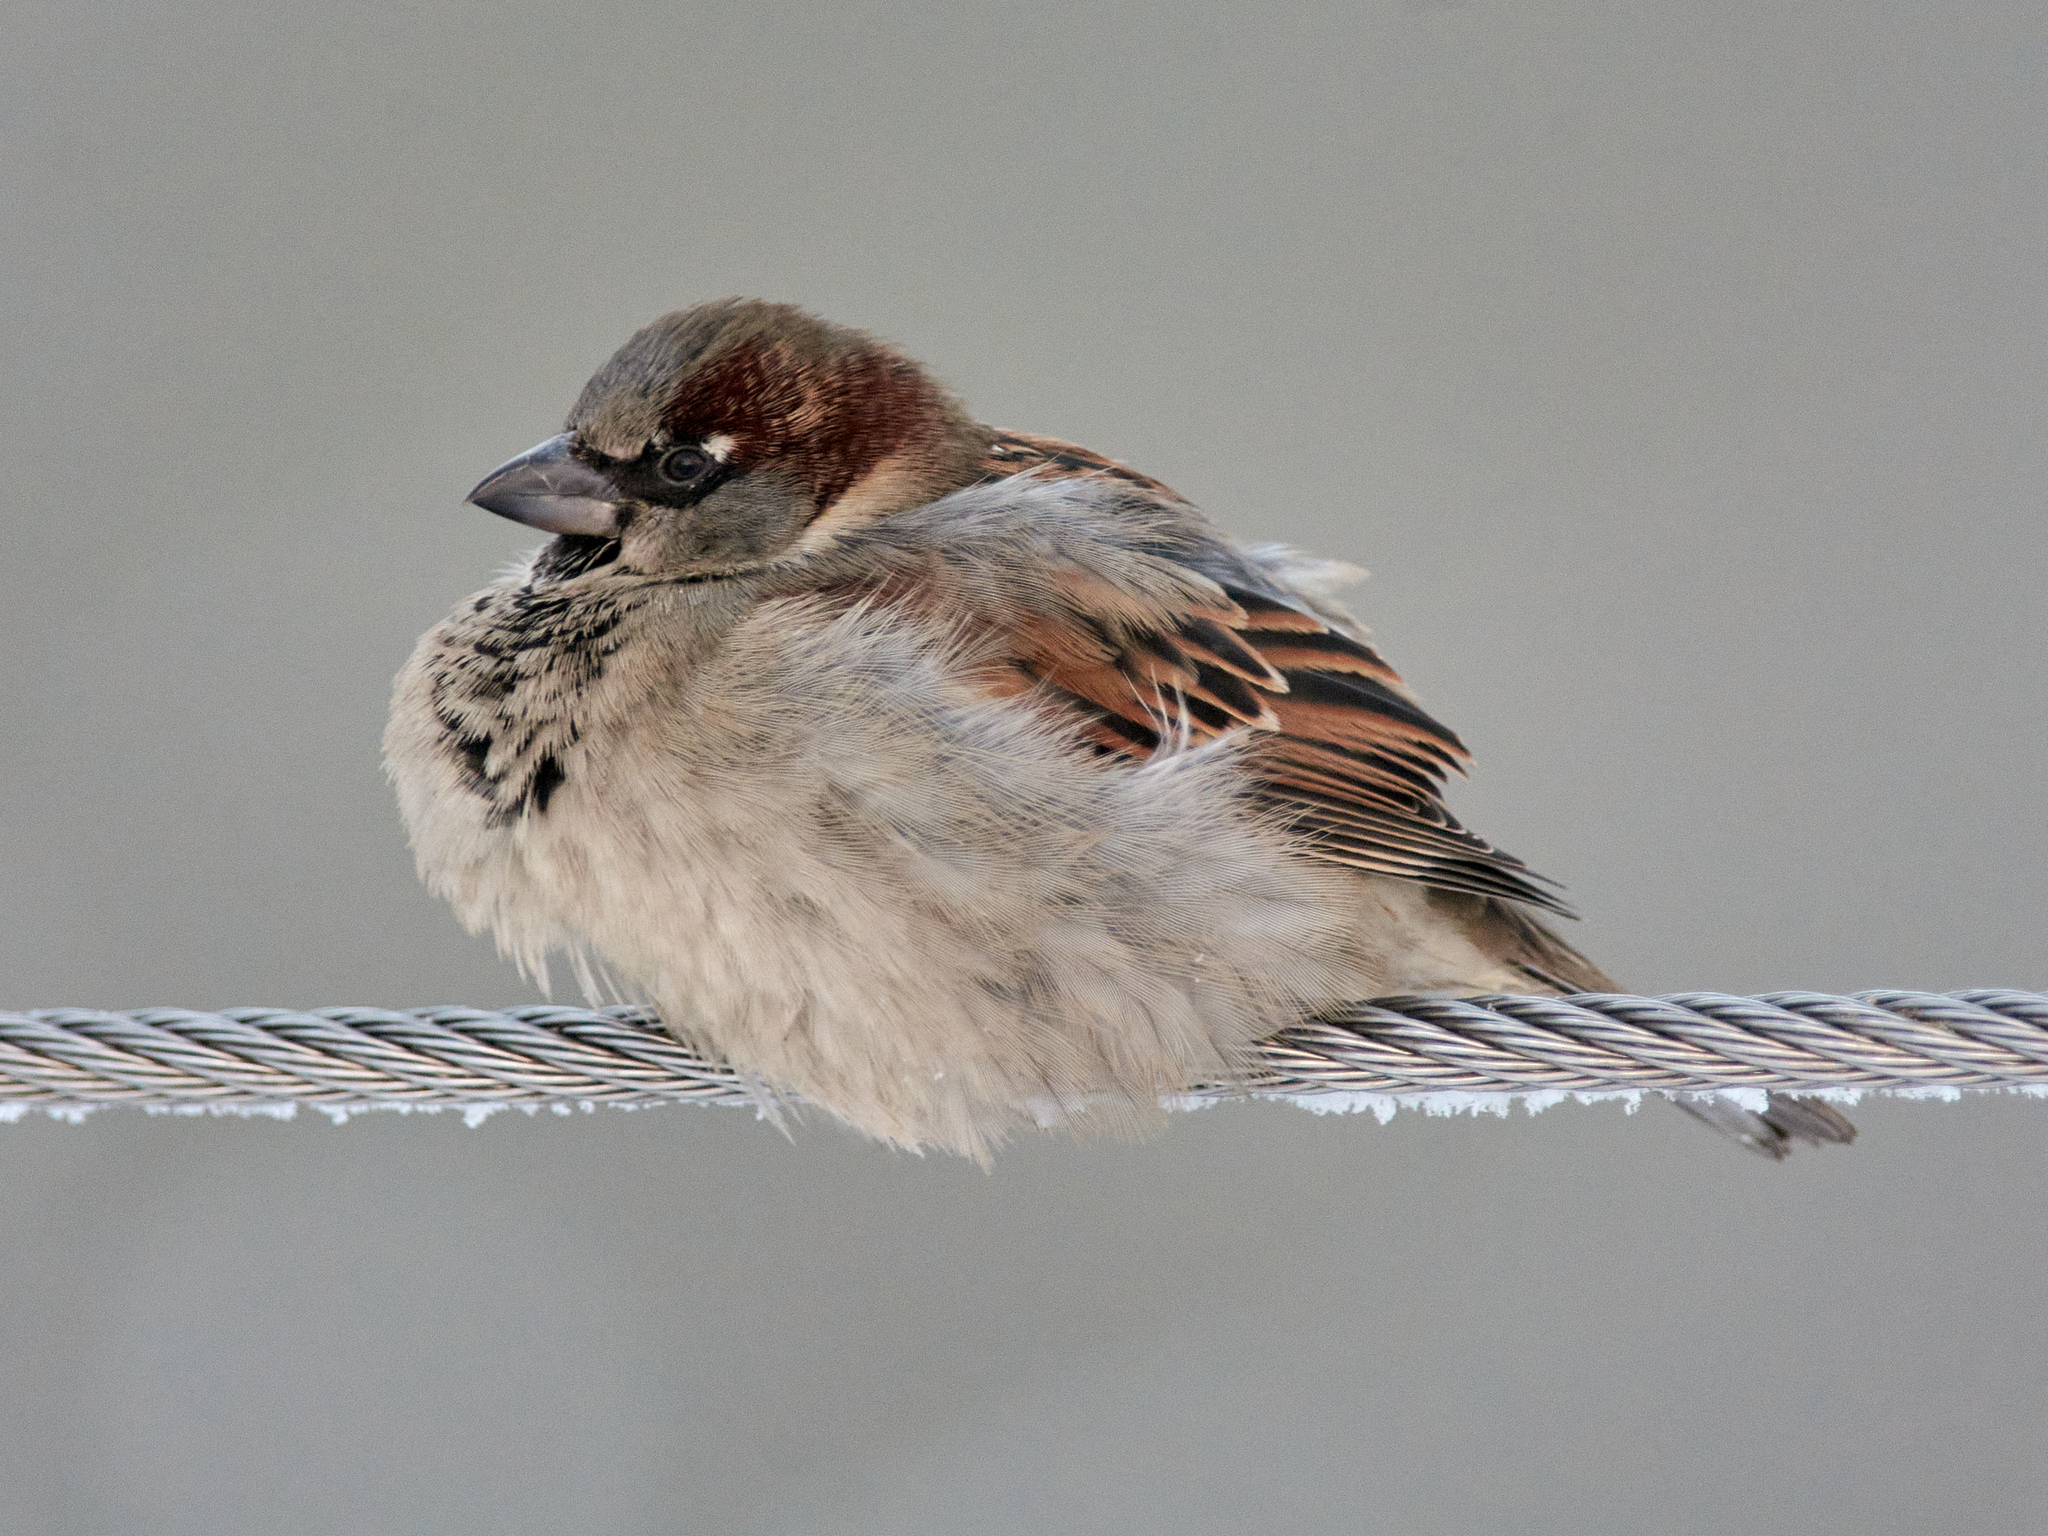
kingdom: Animalia
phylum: Chordata
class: Aves
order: Passeriformes
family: Passeridae
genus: Passer
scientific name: Passer domesticus
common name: House sparrow
